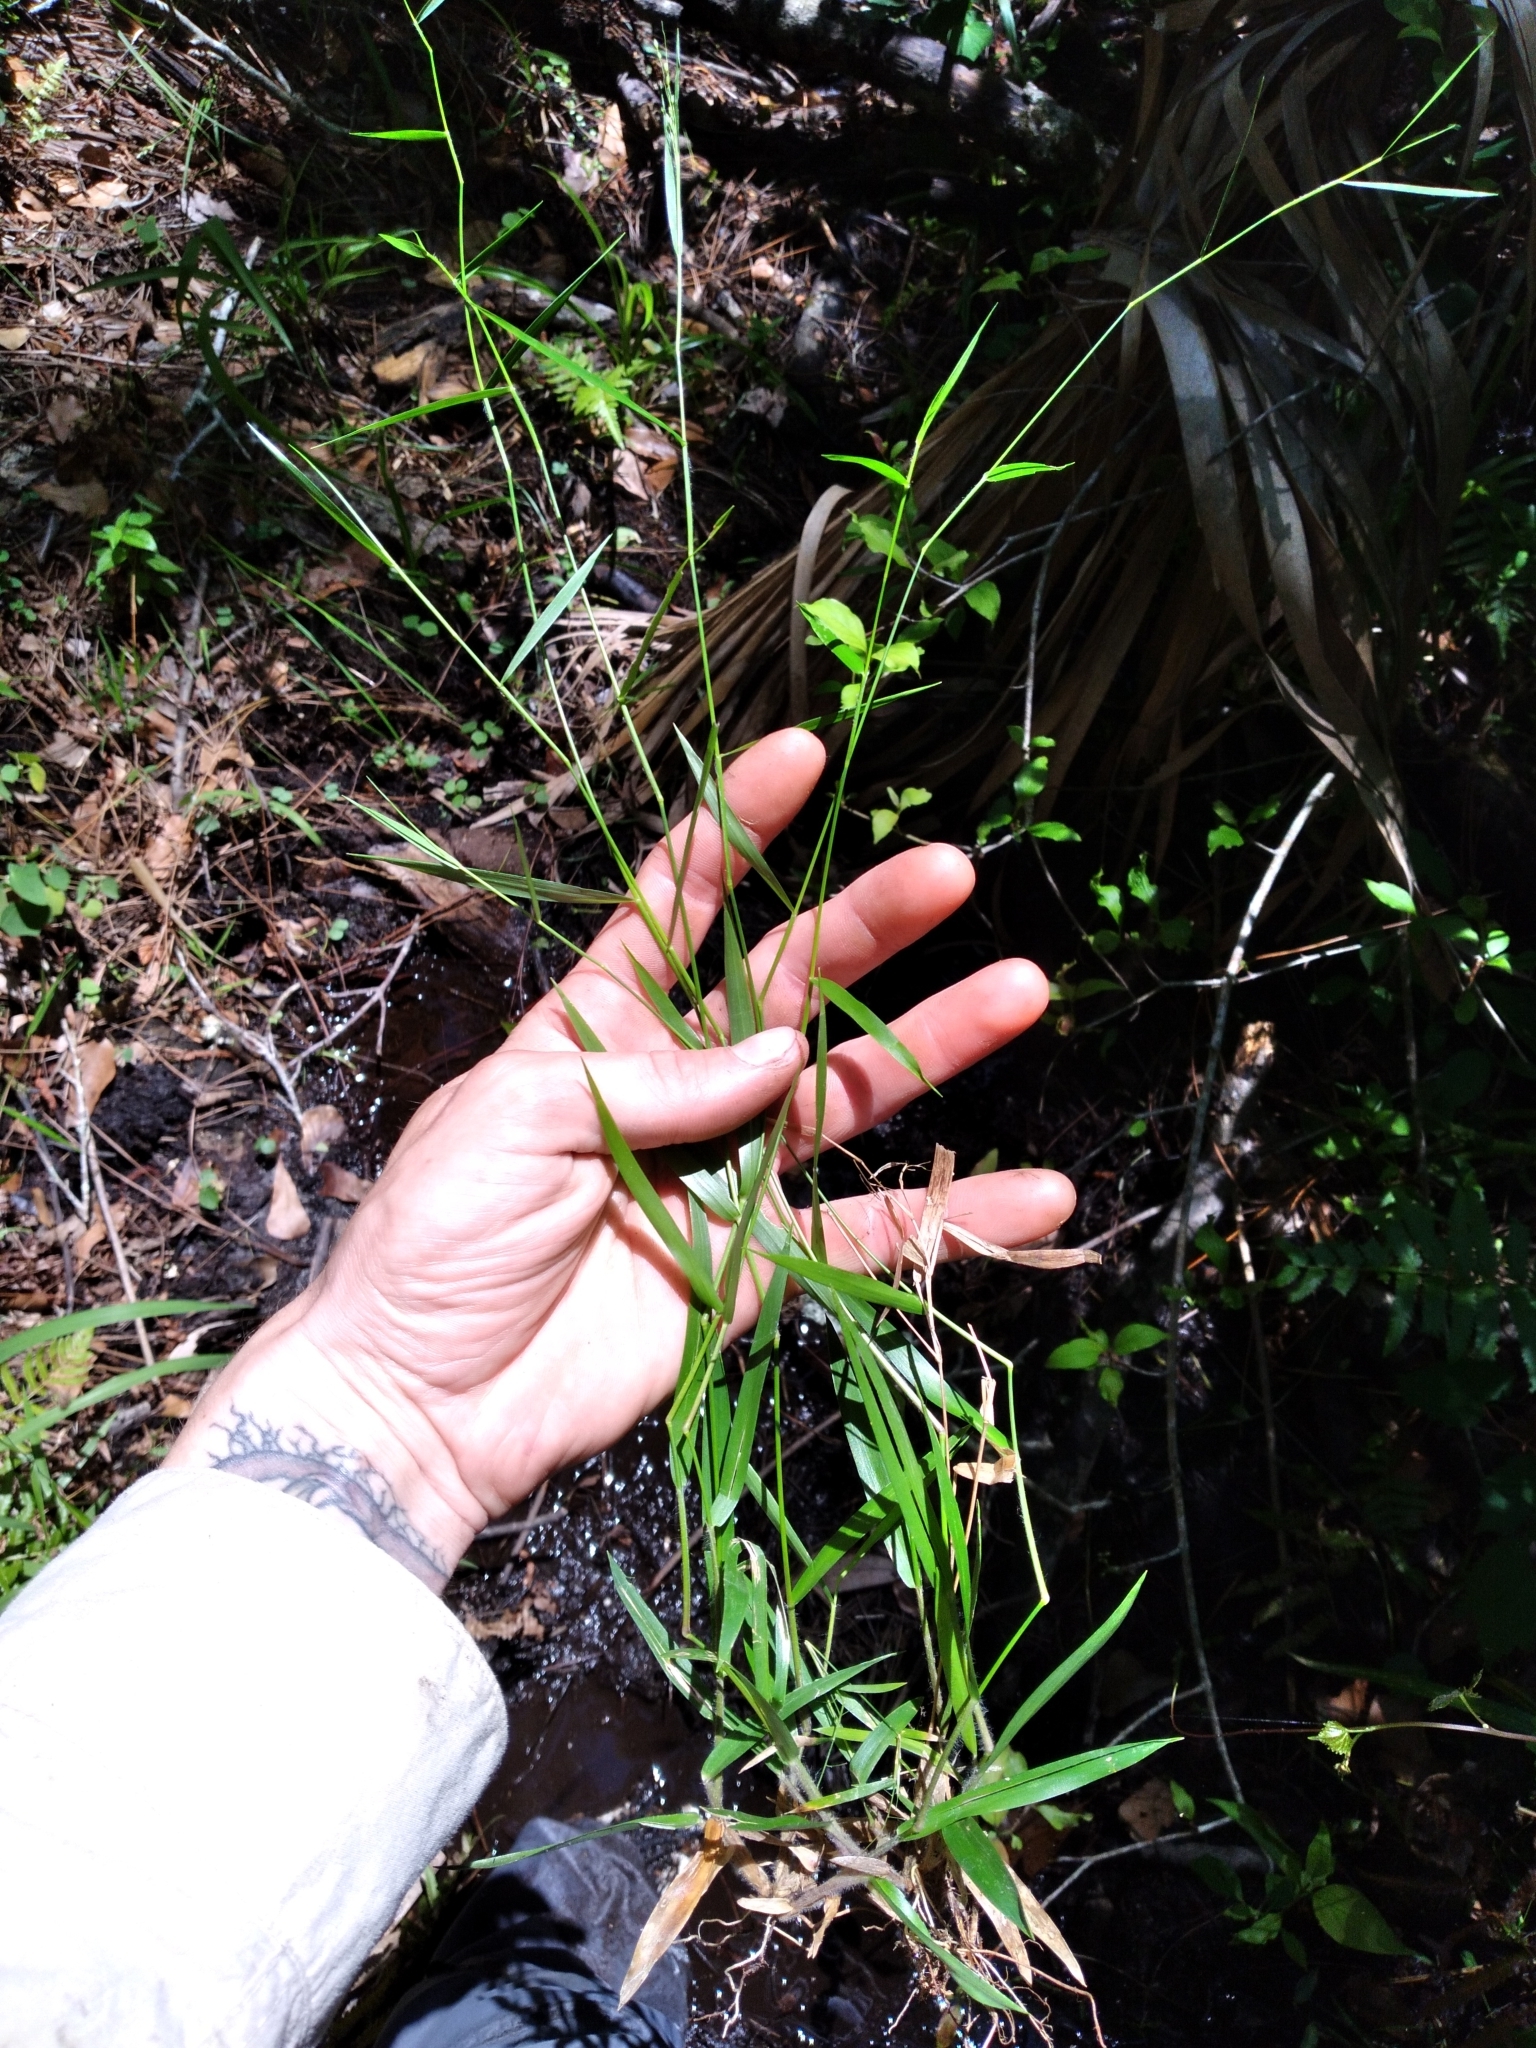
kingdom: Plantae
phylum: Tracheophyta
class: Liliopsida
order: Poales
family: Poaceae
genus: Dichanthelium
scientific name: Dichanthelium lucidum
